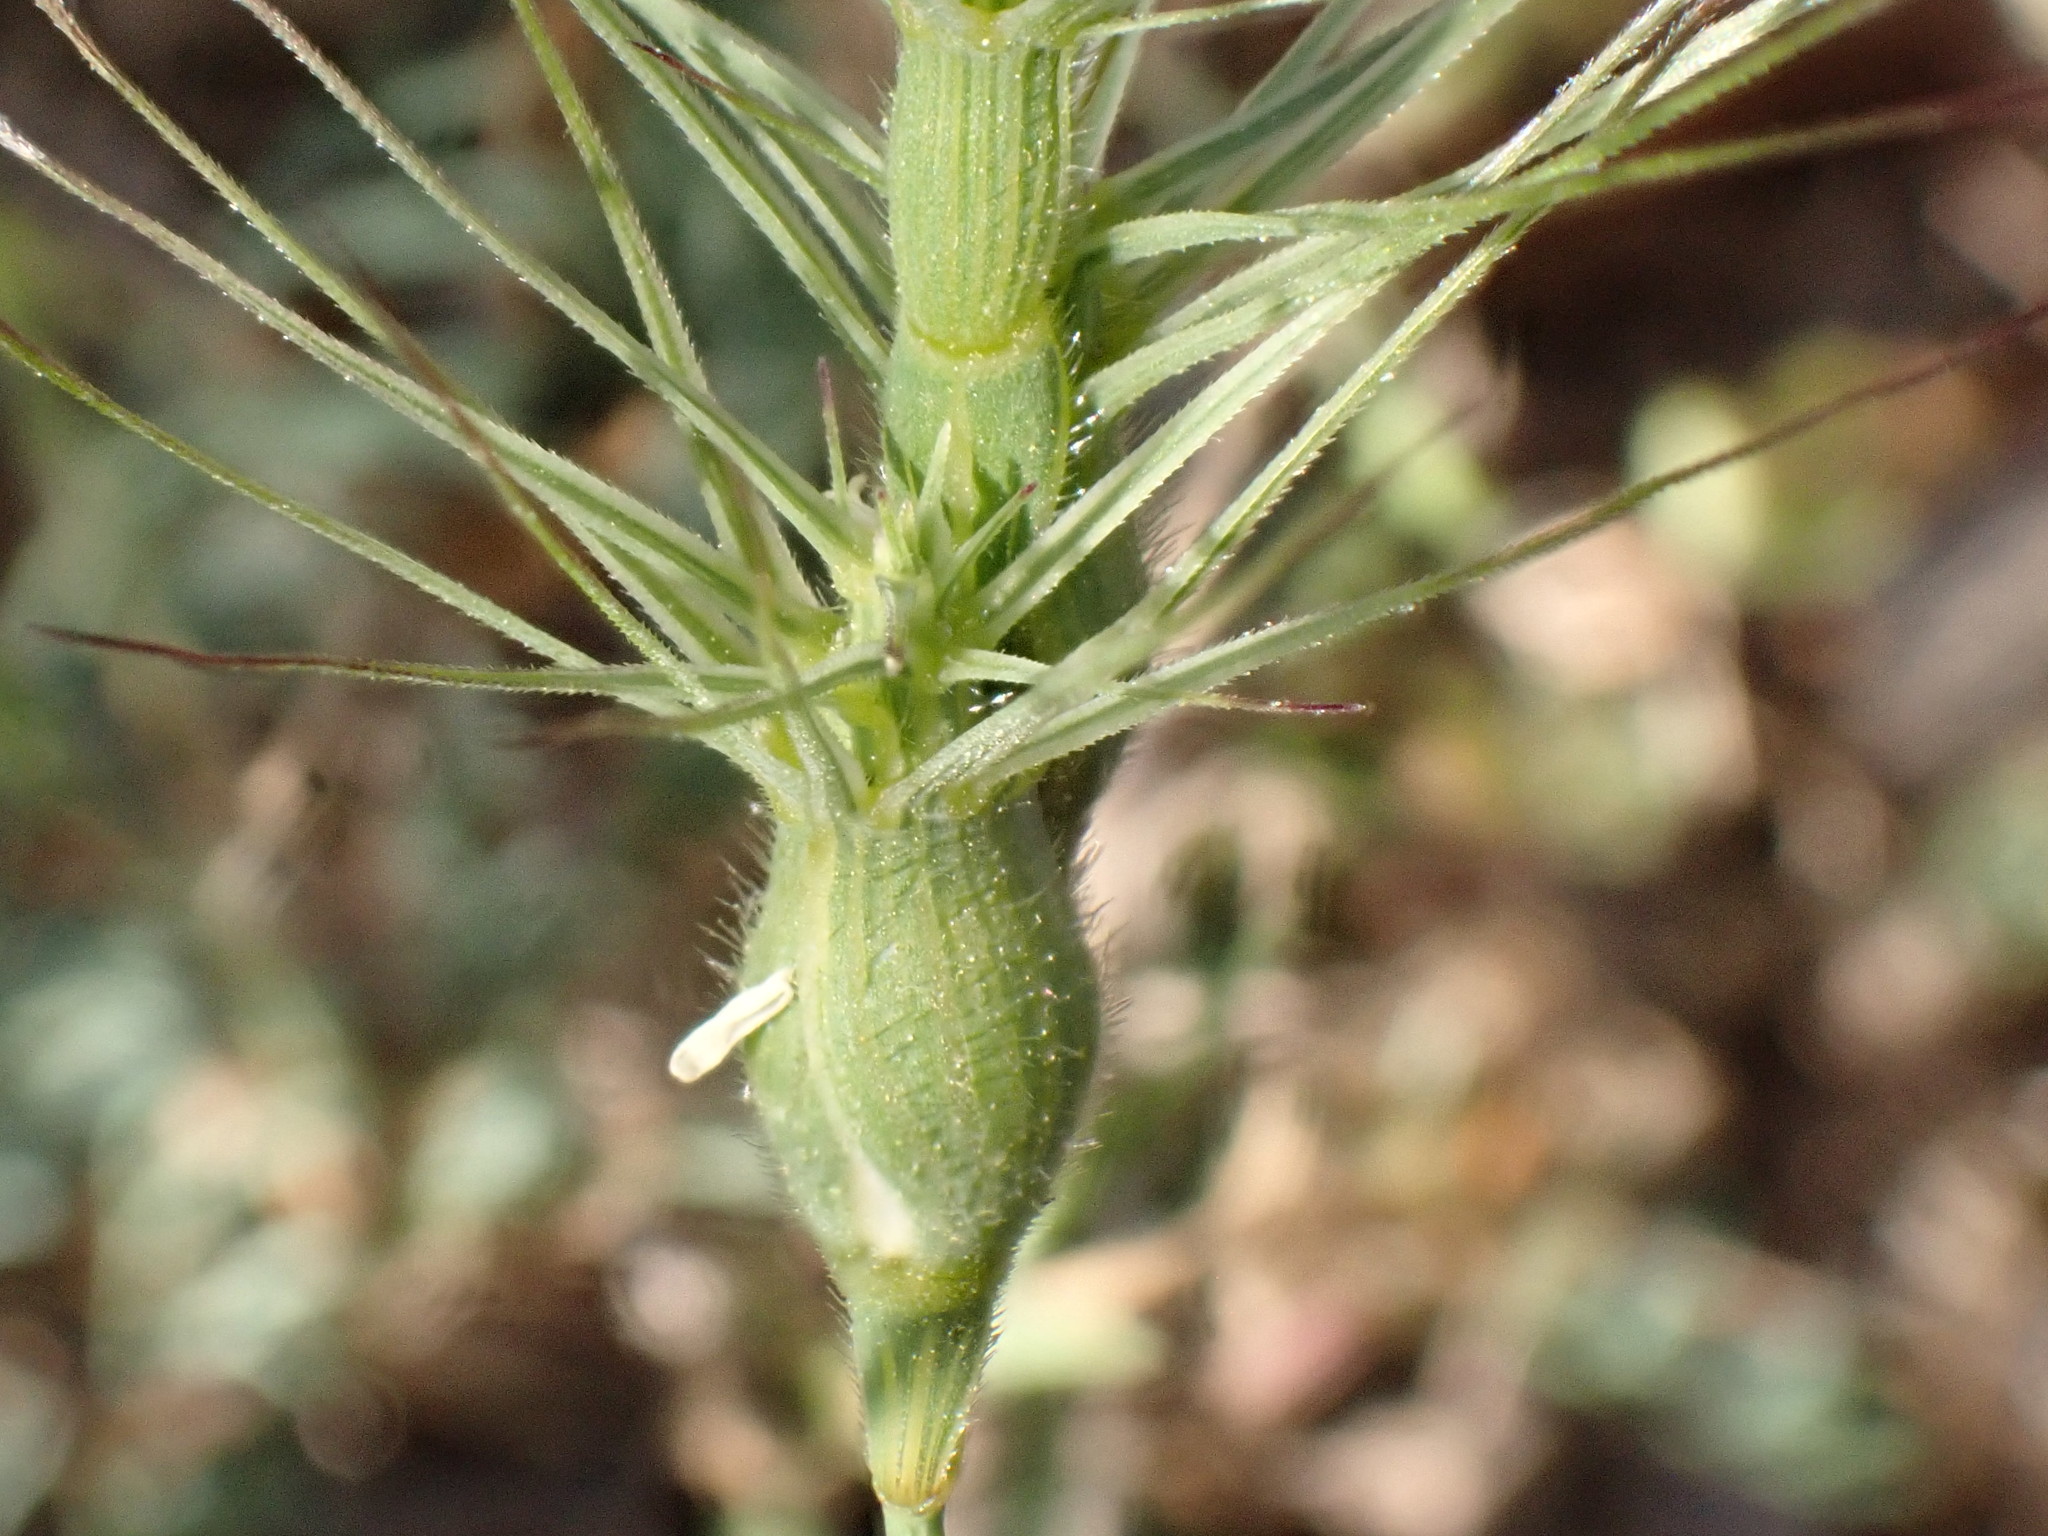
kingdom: Plantae
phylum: Tracheophyta
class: Liliopsida
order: Poales
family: Poaceae
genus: Aegilops
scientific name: Aegilops geniculata
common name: Ovate goat grass
